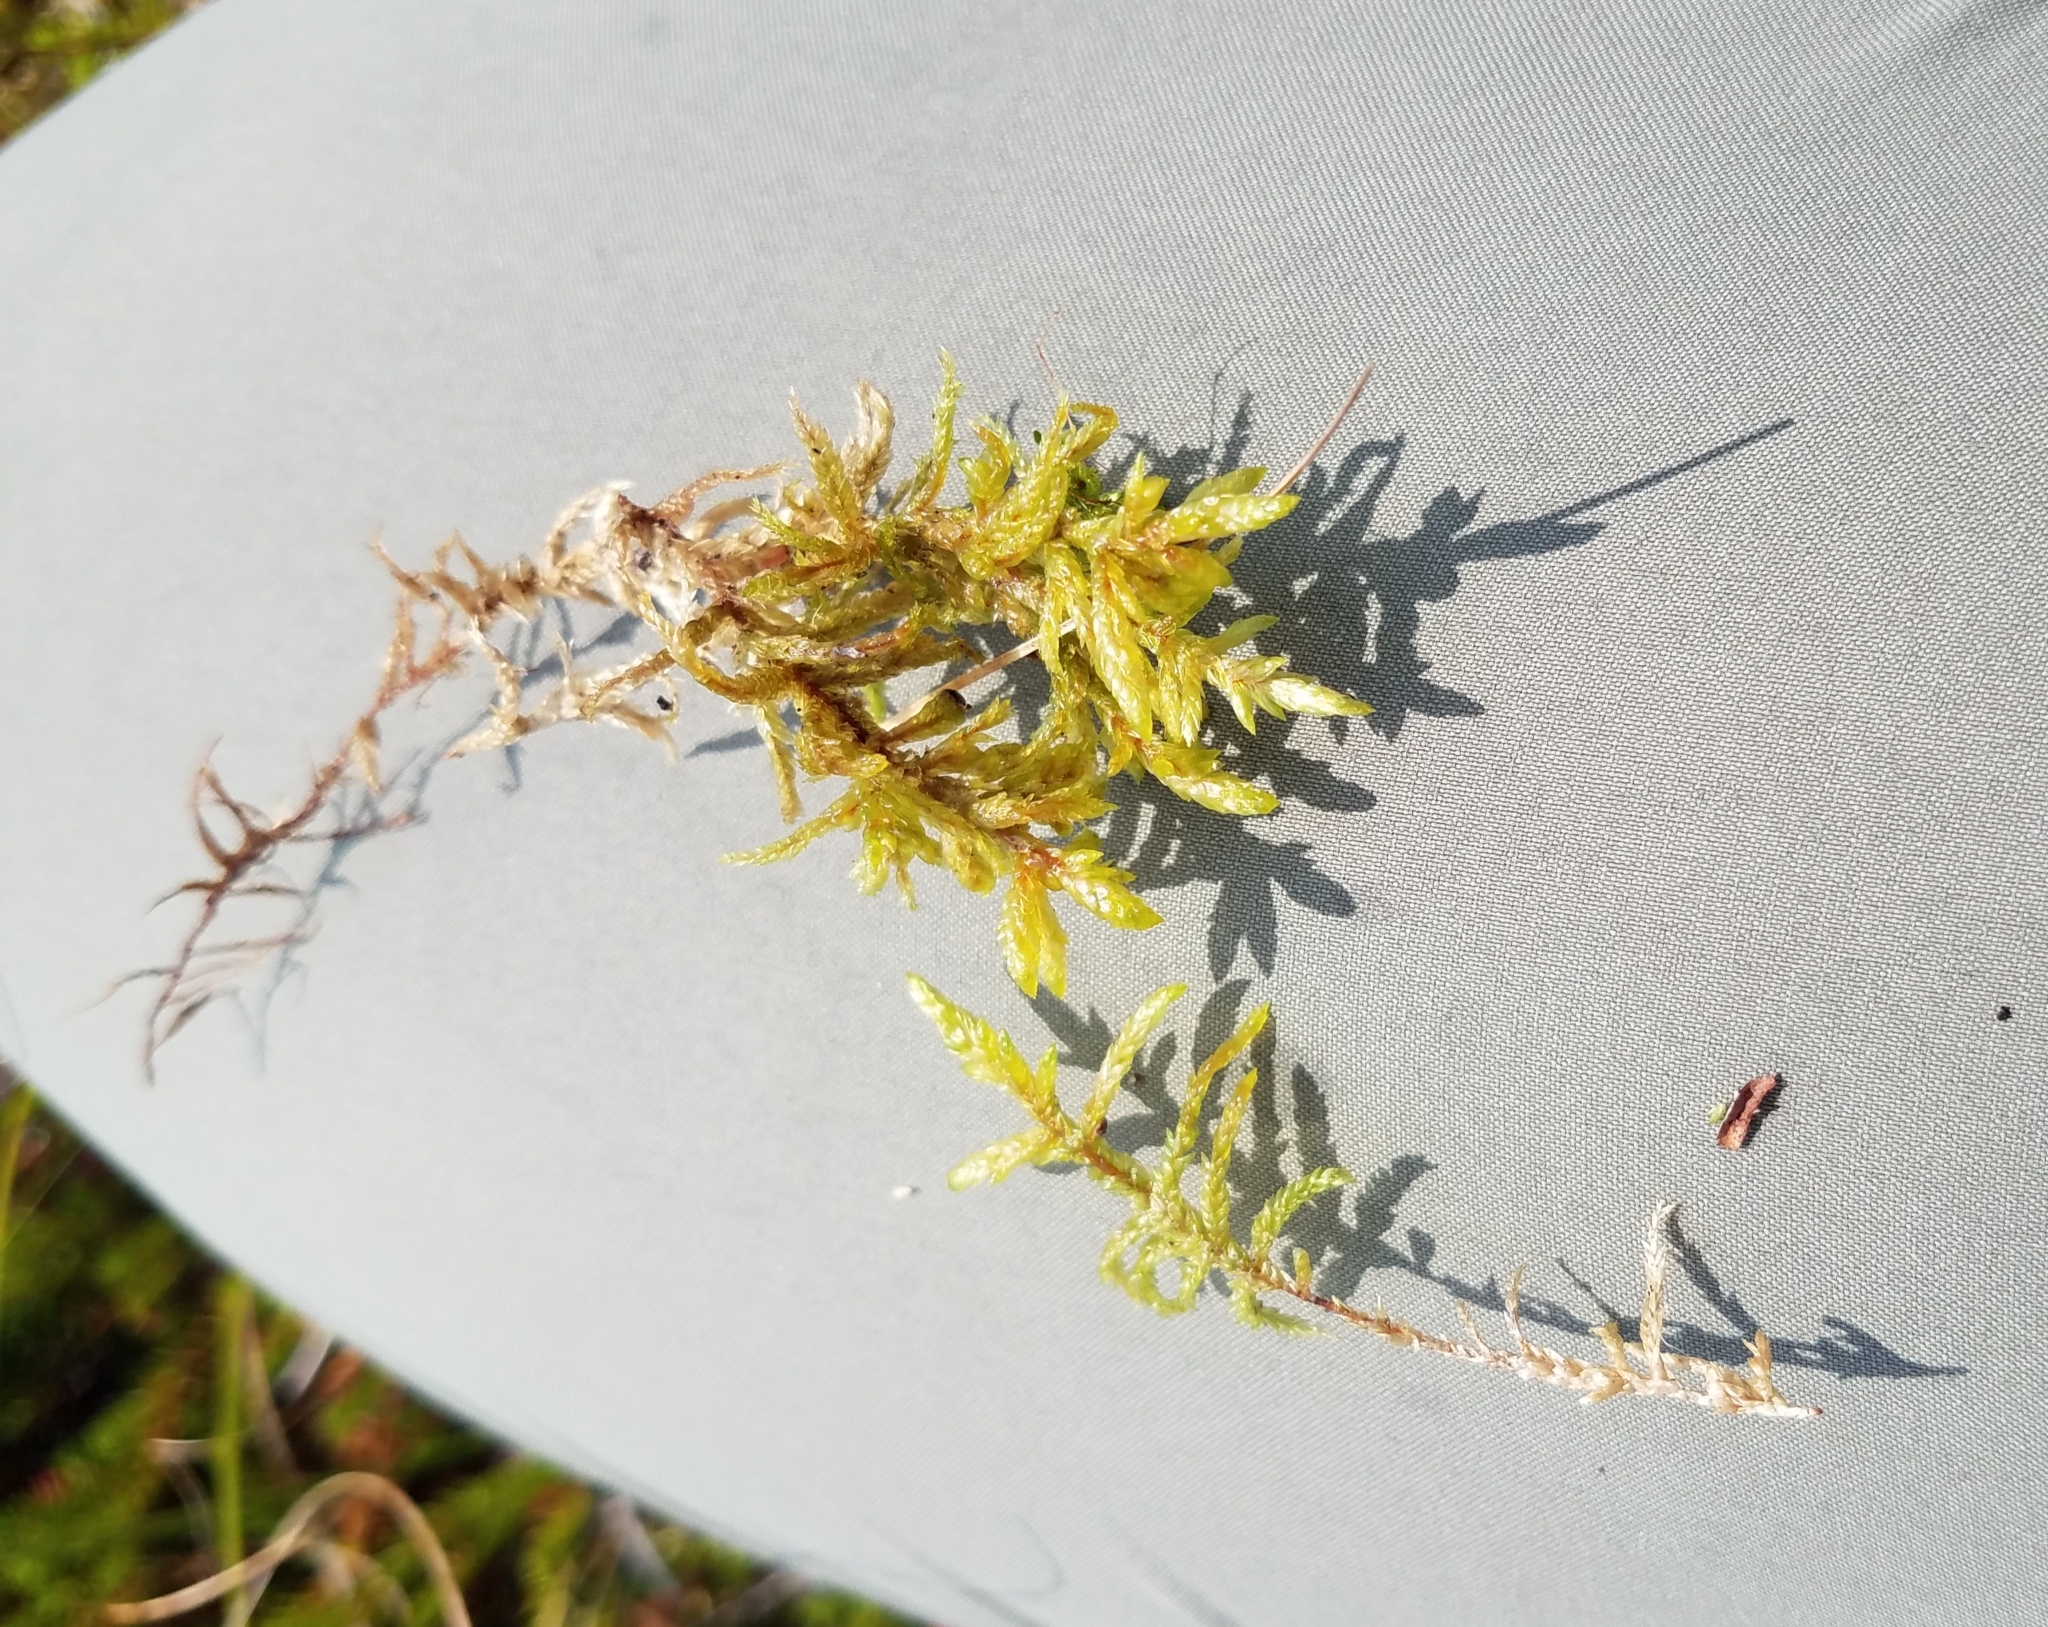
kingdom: Plantae
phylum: Bryophyta
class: Bryopsida
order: Hypnales
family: Hylocomiaceae
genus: Pleurozium
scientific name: Pleurozium schreberi
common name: Red-stemmed feather moss
